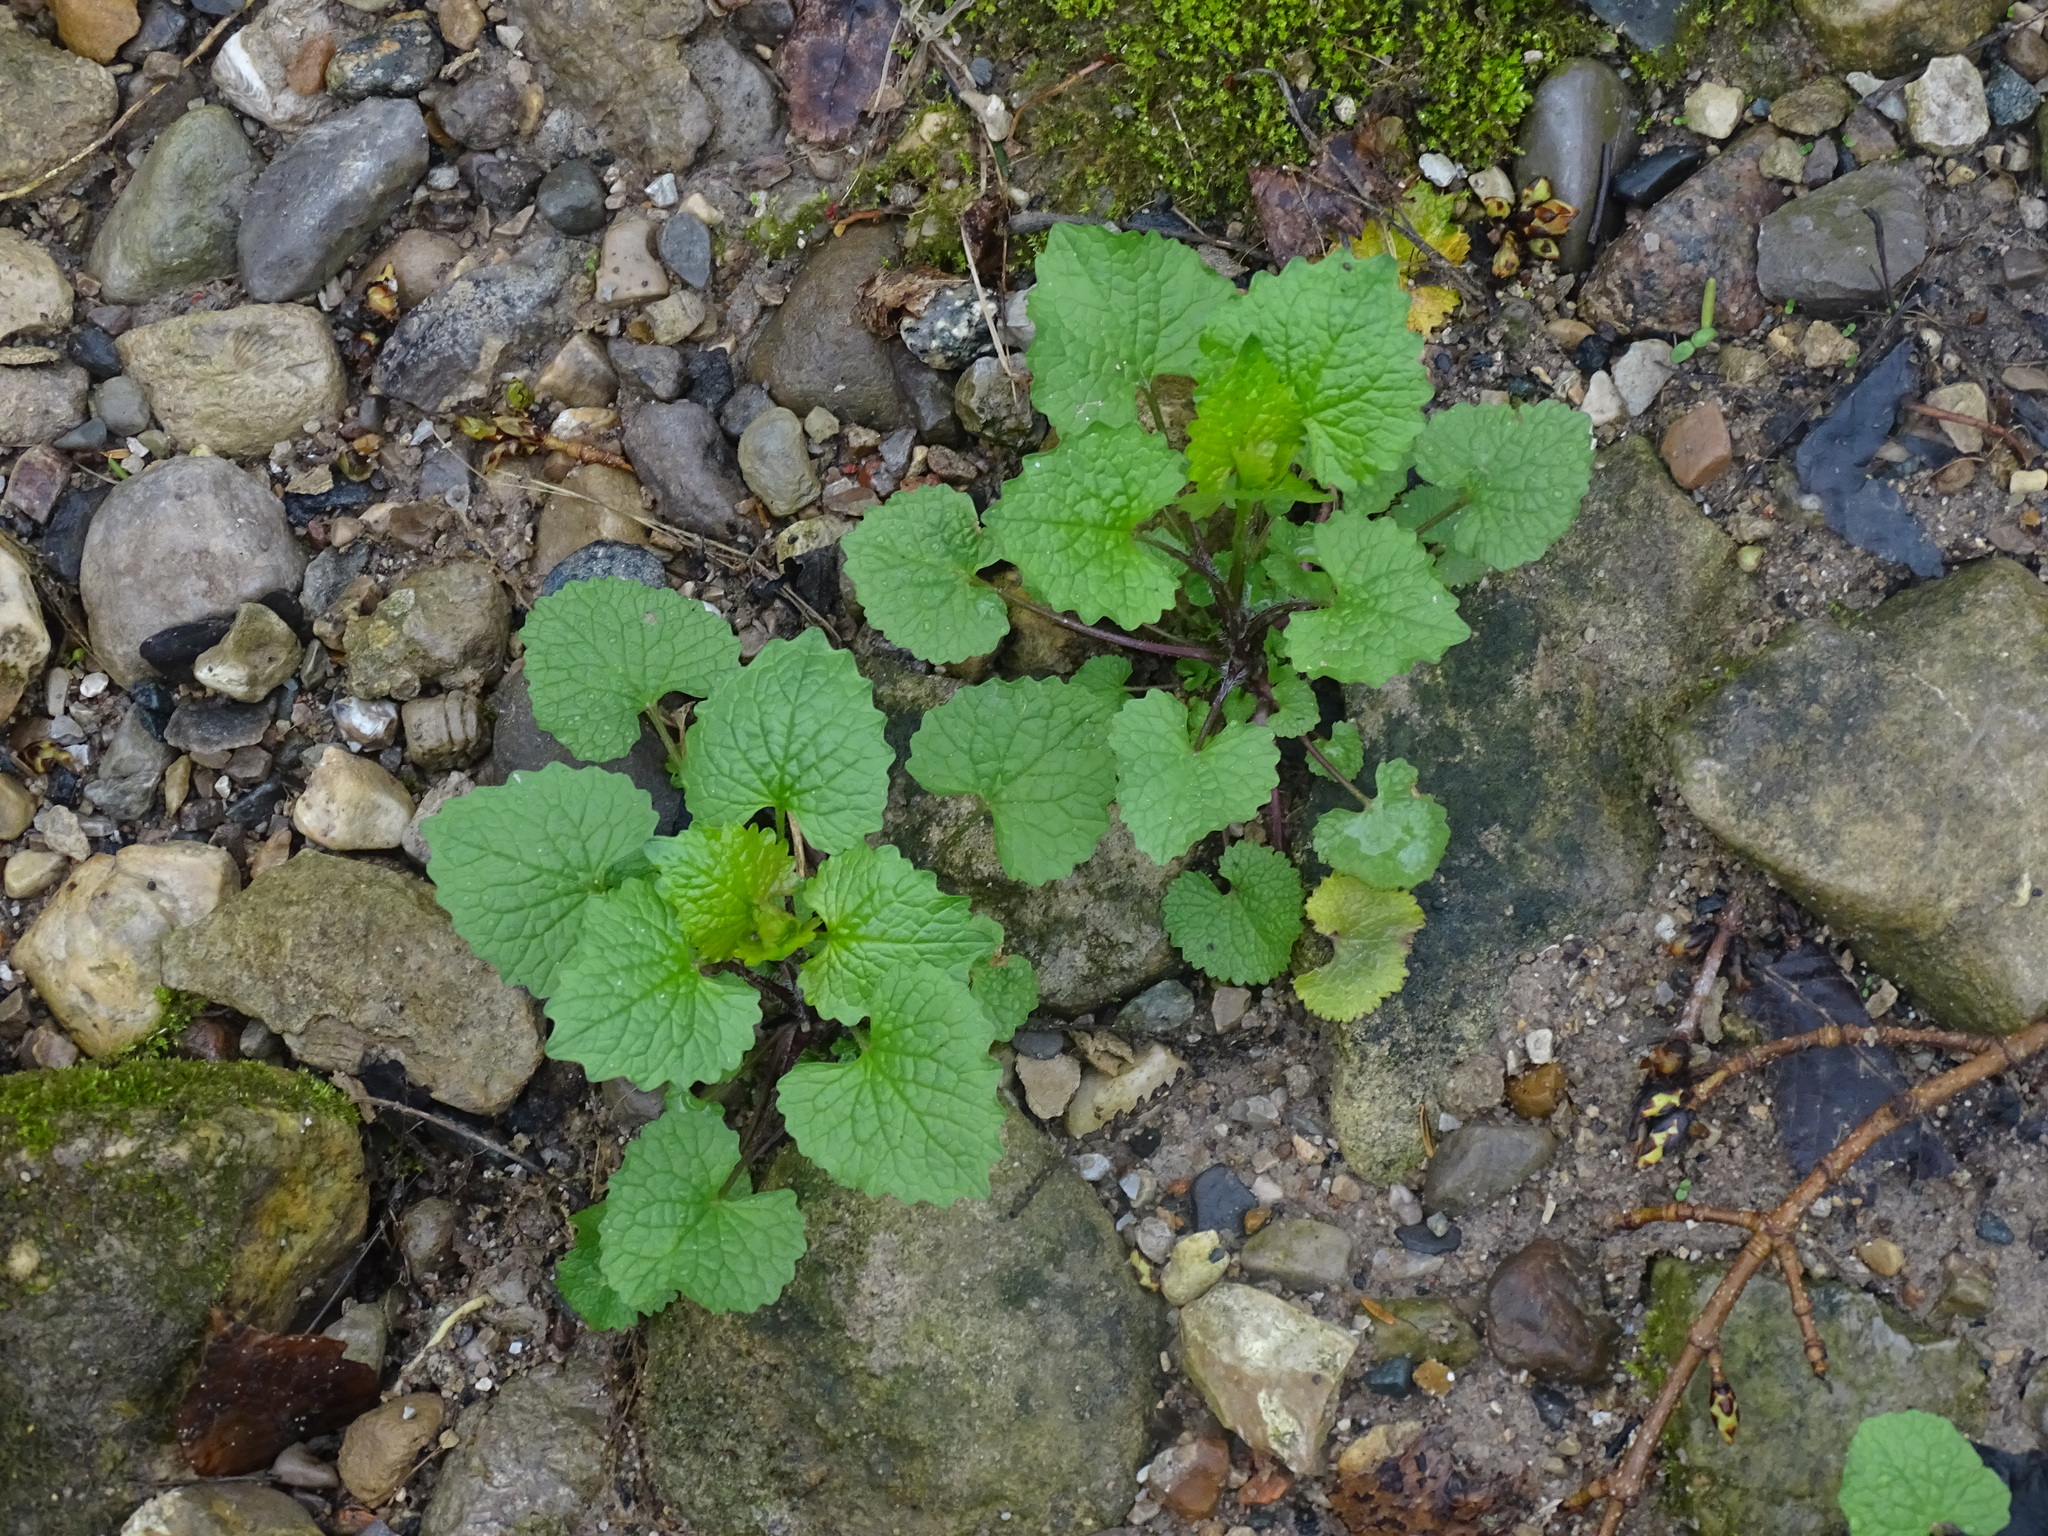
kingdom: Plantae
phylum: Tracheophyta
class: Magnoliopsida
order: Brassicales
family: Brassicaceae
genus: Alliaria
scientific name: Alliaria petiolata
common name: Garlic mustard
